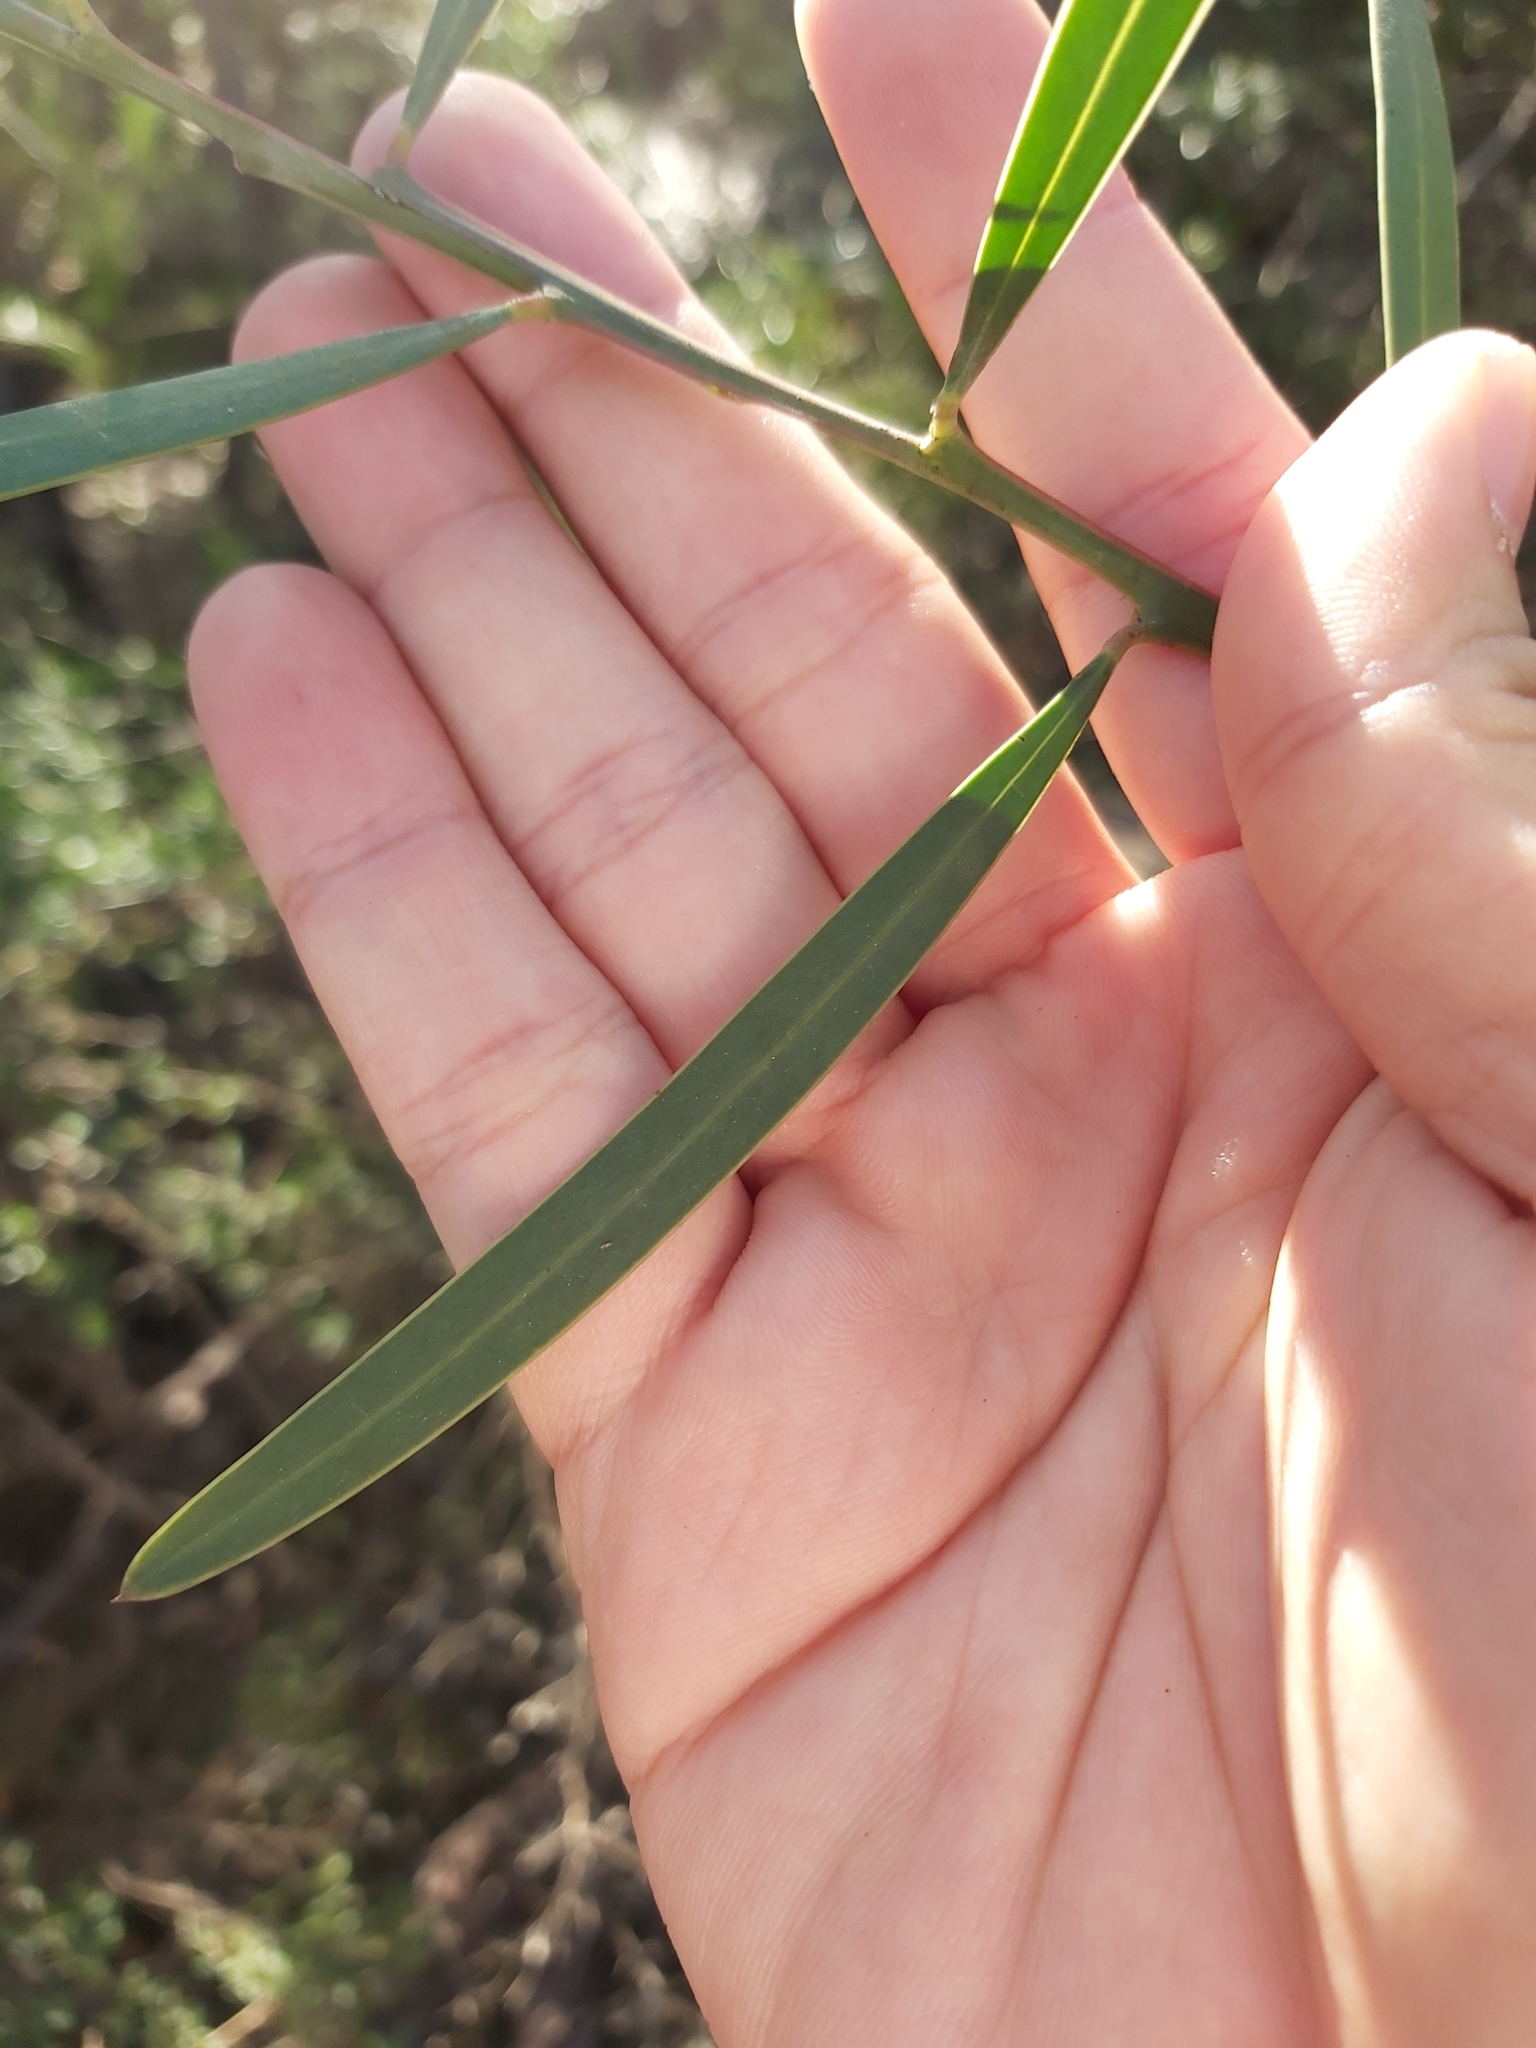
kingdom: Plantae
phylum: Tracheophyta
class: Magnoliopsida
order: Fabales
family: Fabaceae
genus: Acacia
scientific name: Acacia suaveolens
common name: Sweet acacia
